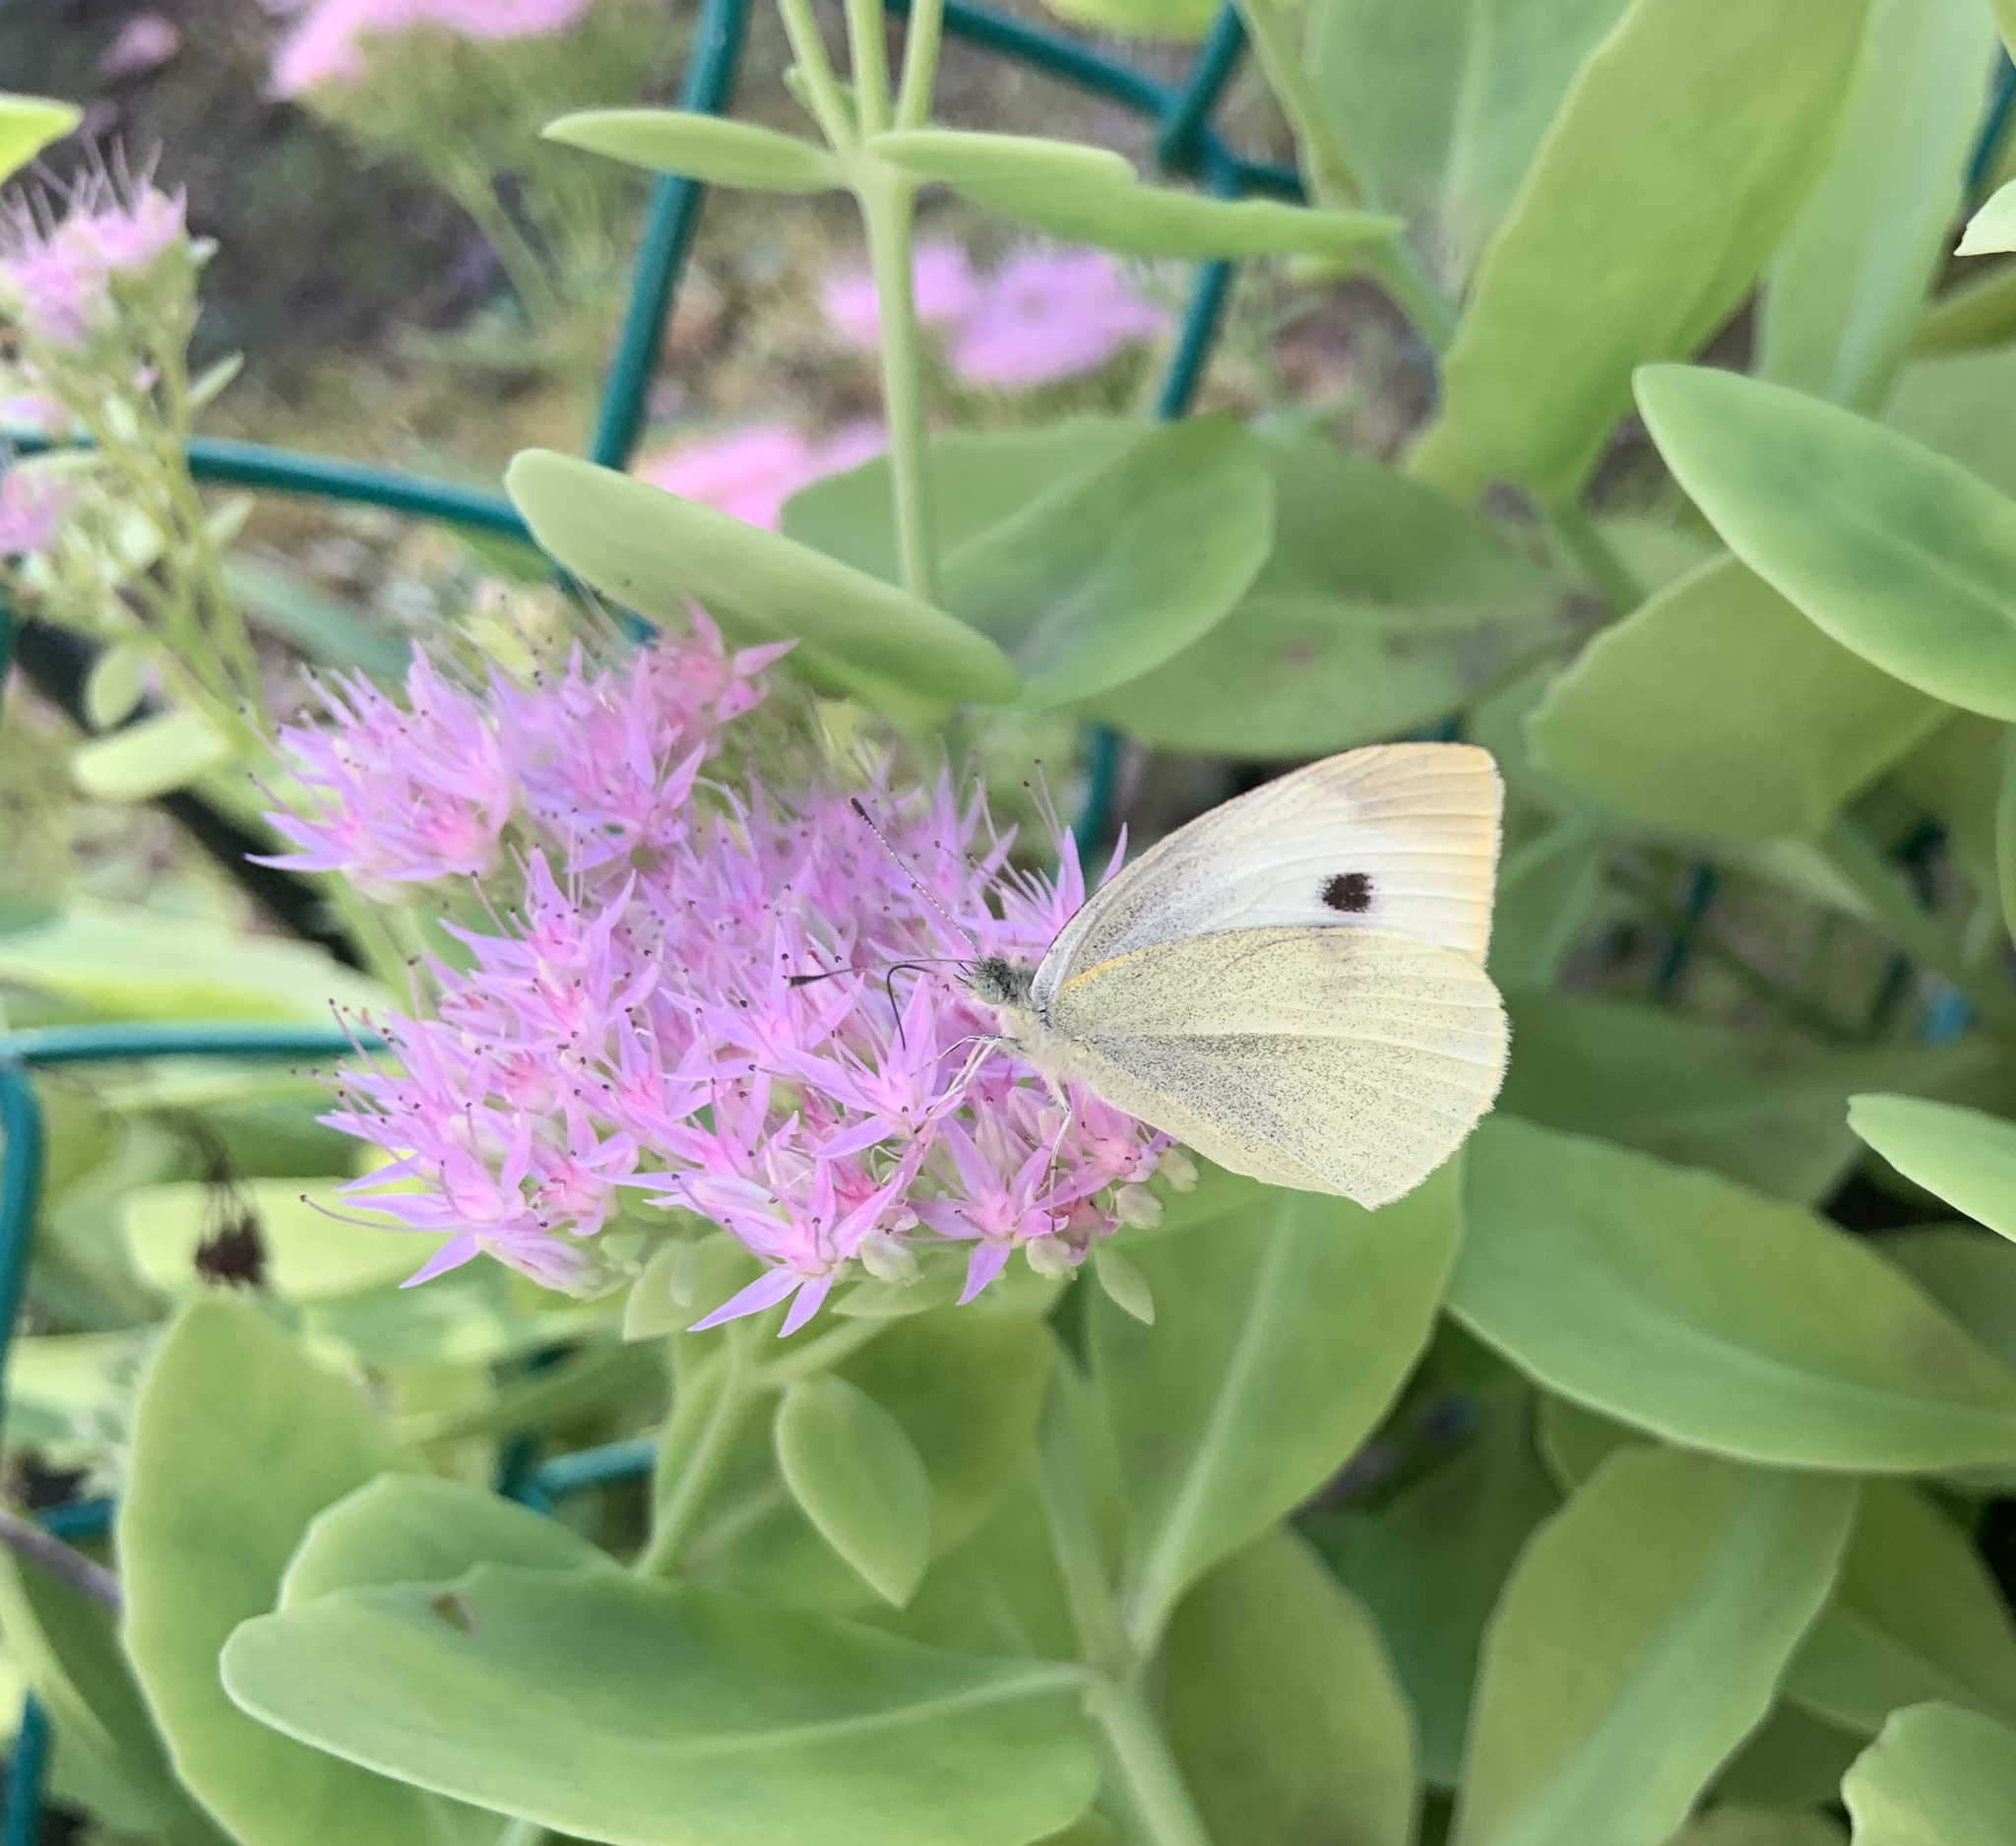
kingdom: Animalia
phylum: Arthropoda
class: Insecta
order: Lepidoptera
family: Pieridae
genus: Pieris
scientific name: Pieris rapae
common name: Small white
